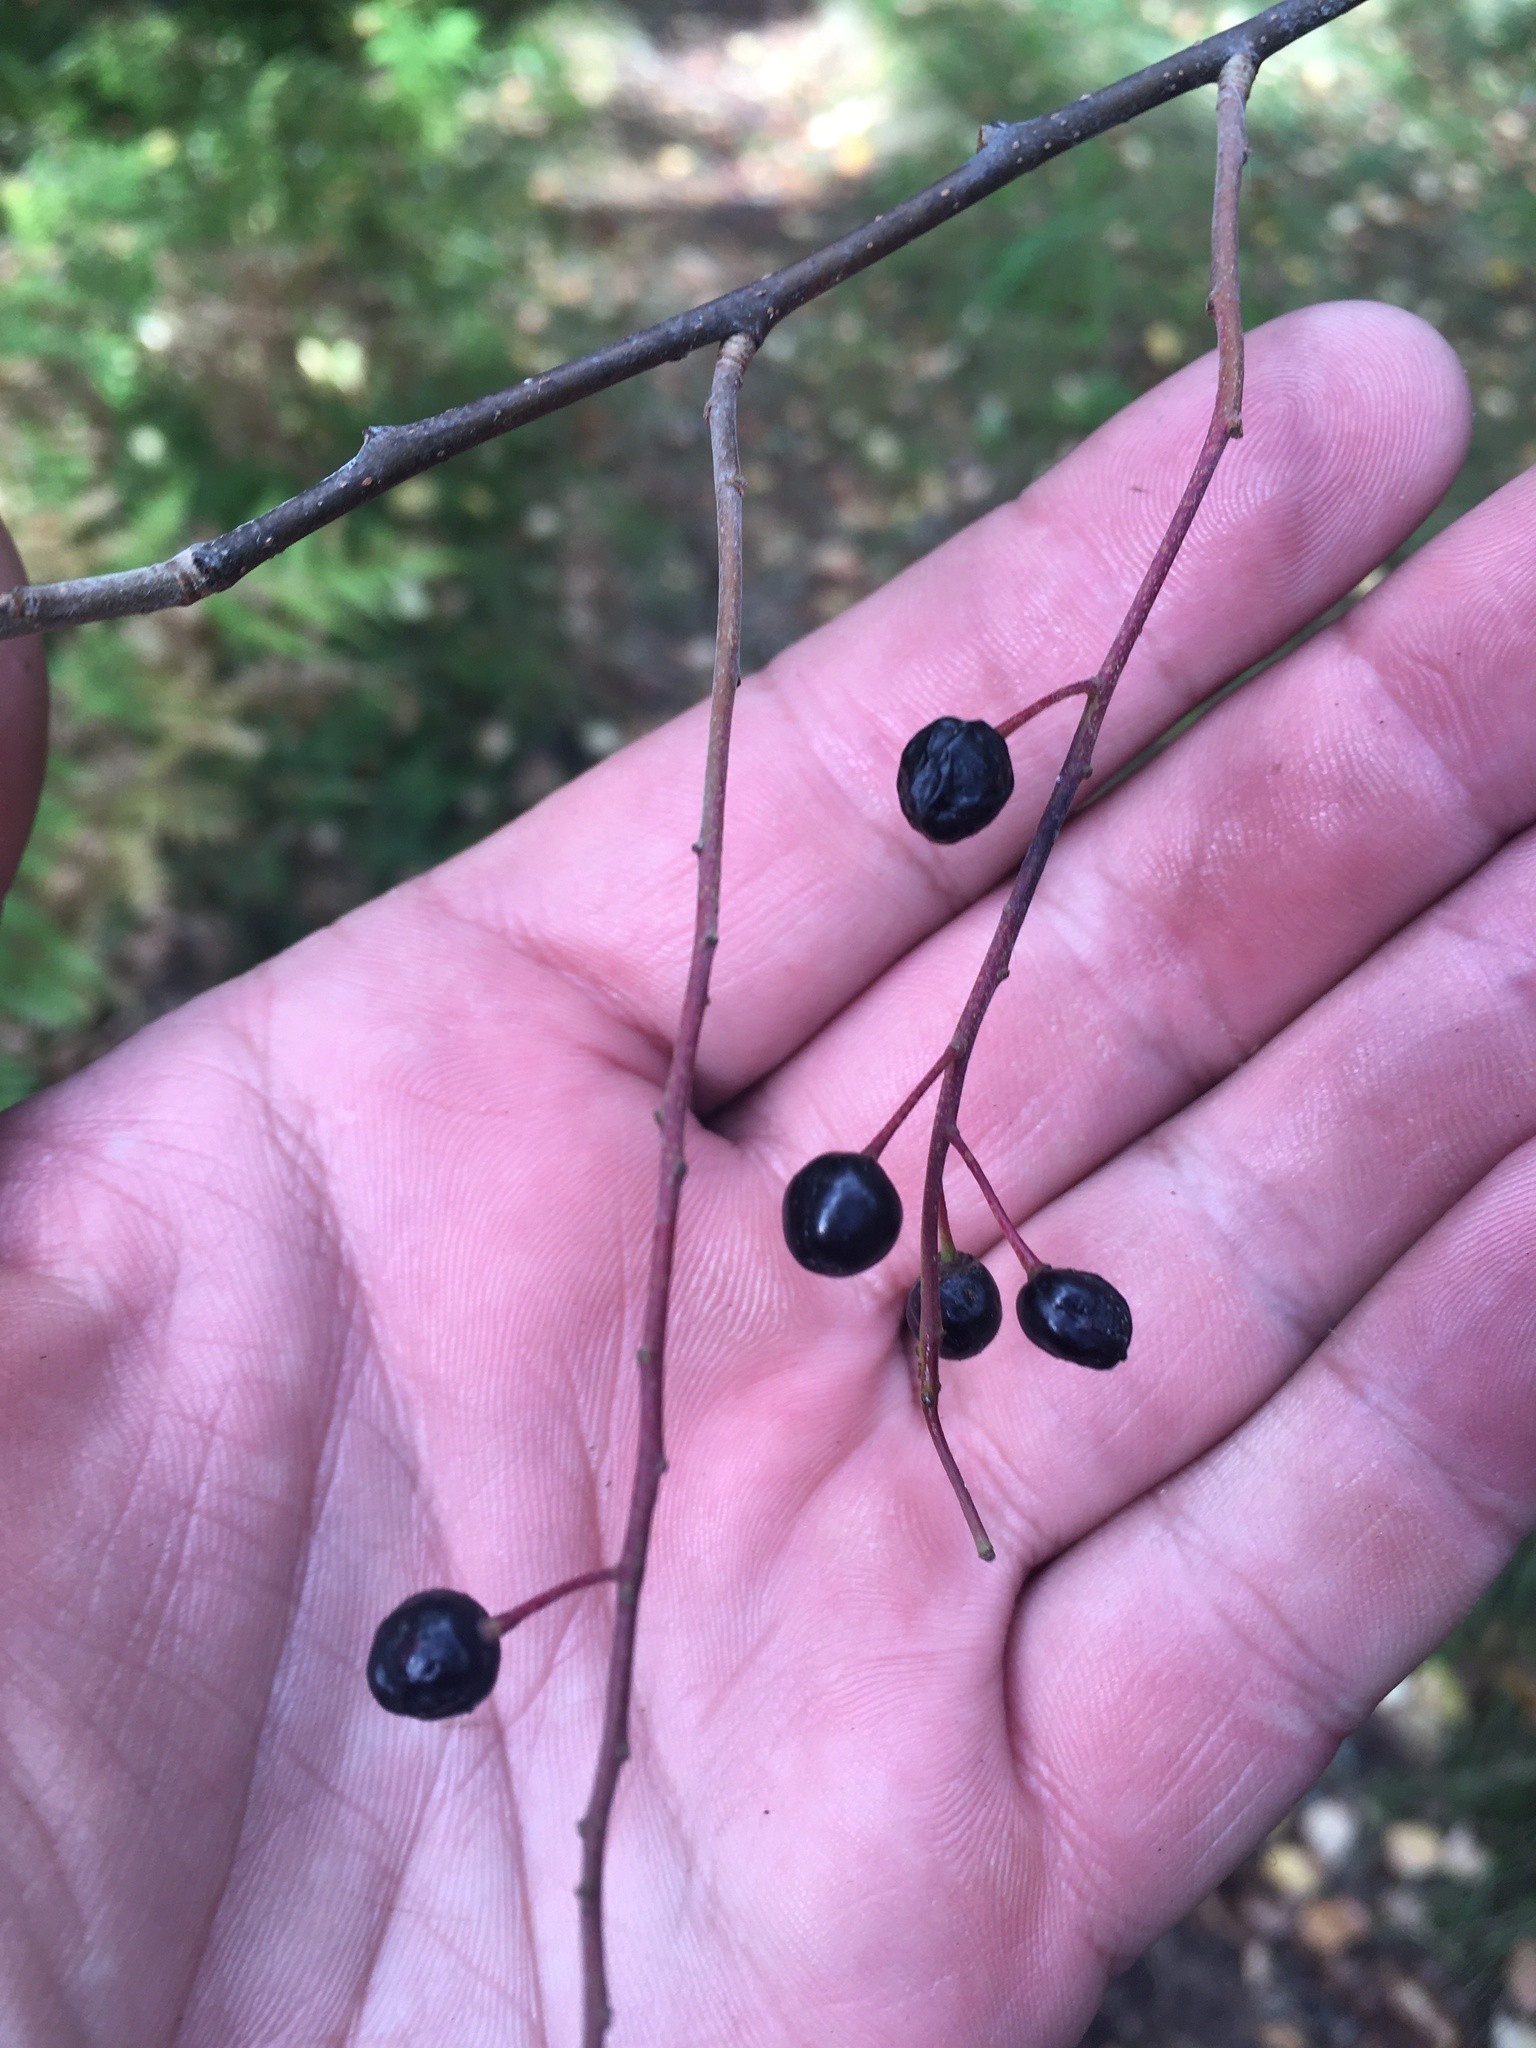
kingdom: Plantae
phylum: Tracheophyta
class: Magnoliopsida
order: Rosales
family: Rosaceae
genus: Prunus
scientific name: Prunus padus
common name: Bird cherry
